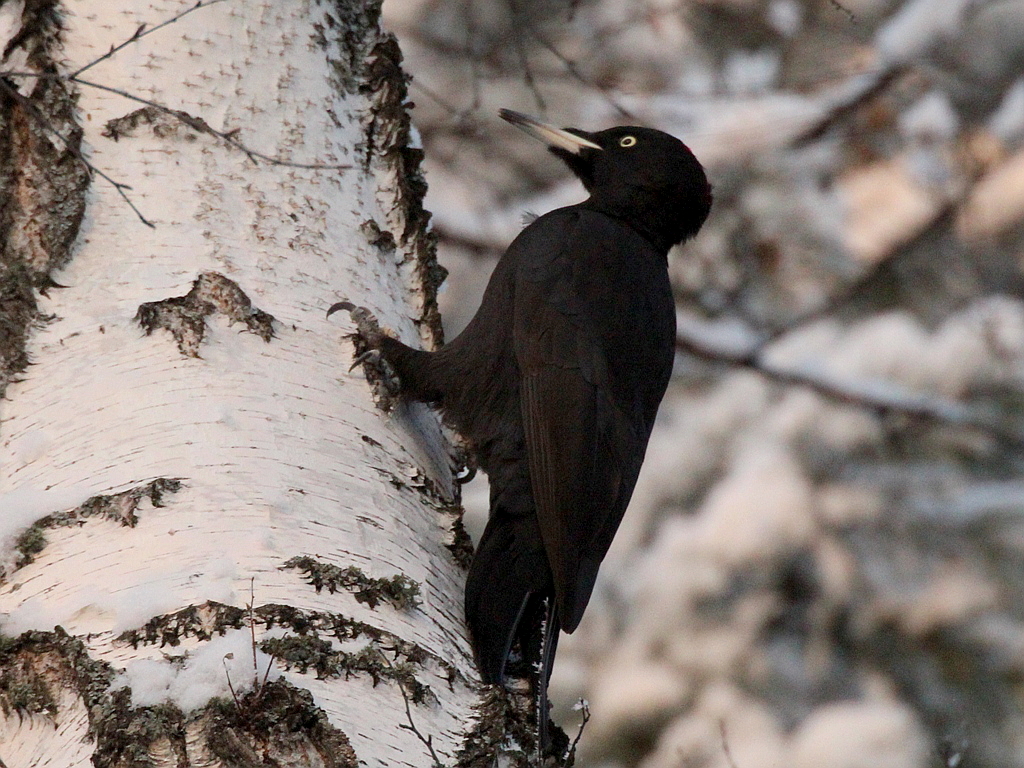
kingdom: Animalia
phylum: Chordata
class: Aves
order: Piciformes
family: Picidae
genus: Dryocopus
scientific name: Dryocopus martius
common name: Black woodpecker
